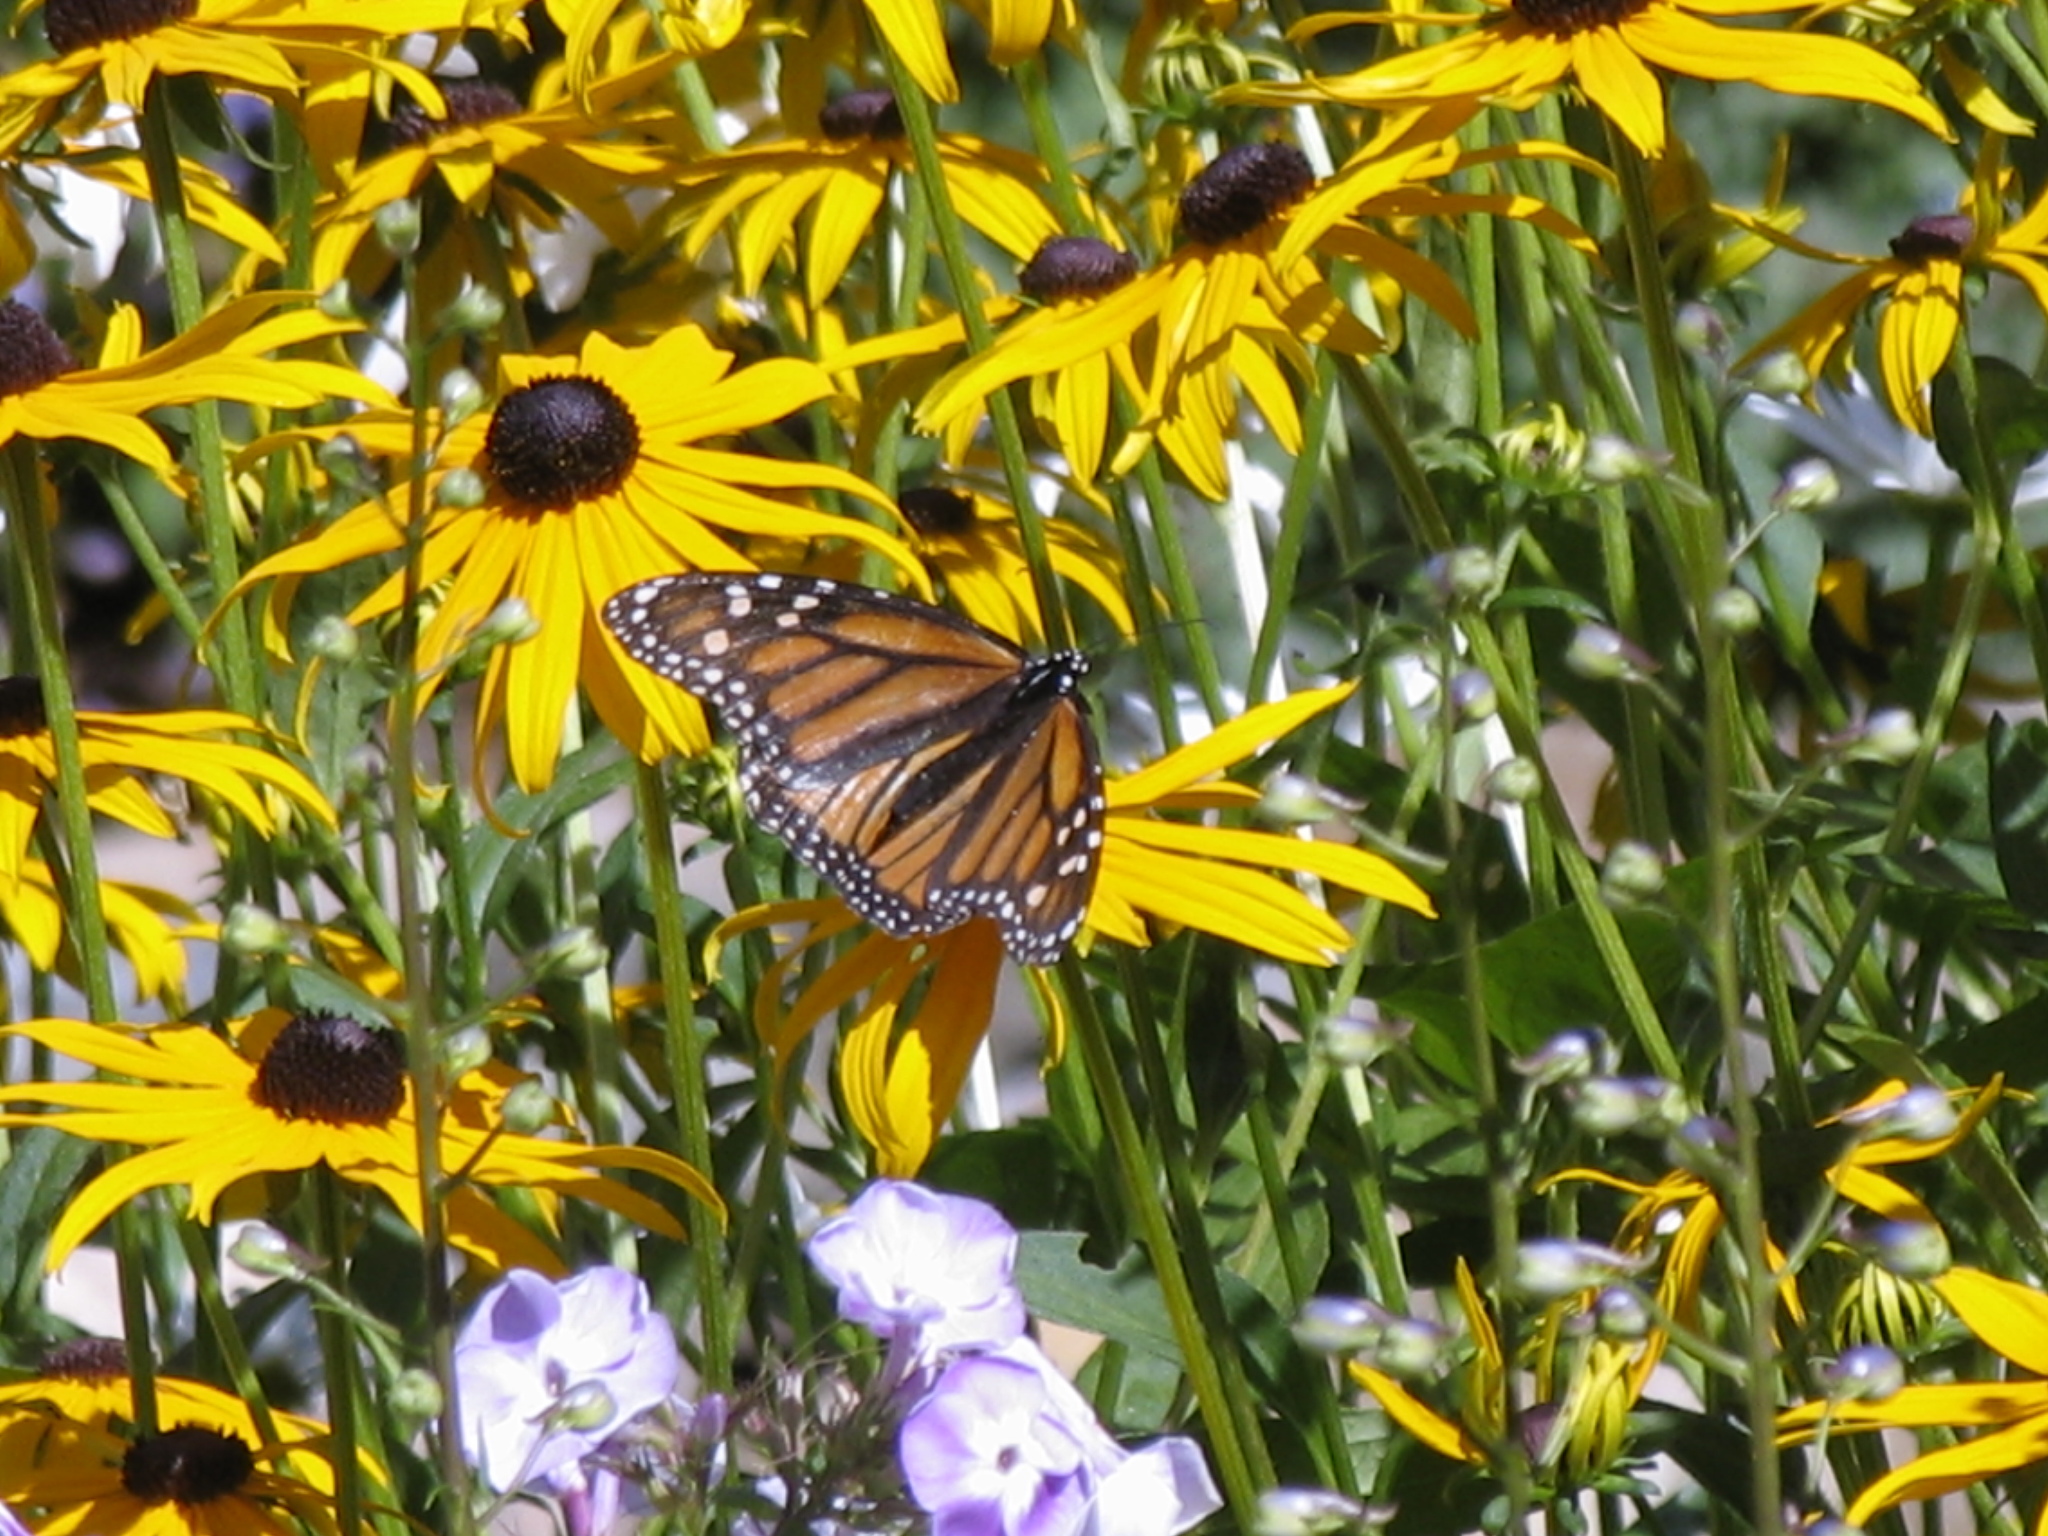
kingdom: Animalia
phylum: Arthropoda
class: Insecta
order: Lepidoptera
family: Nymphalidae
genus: Danaus
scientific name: Danaus plexippus
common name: Monarch
